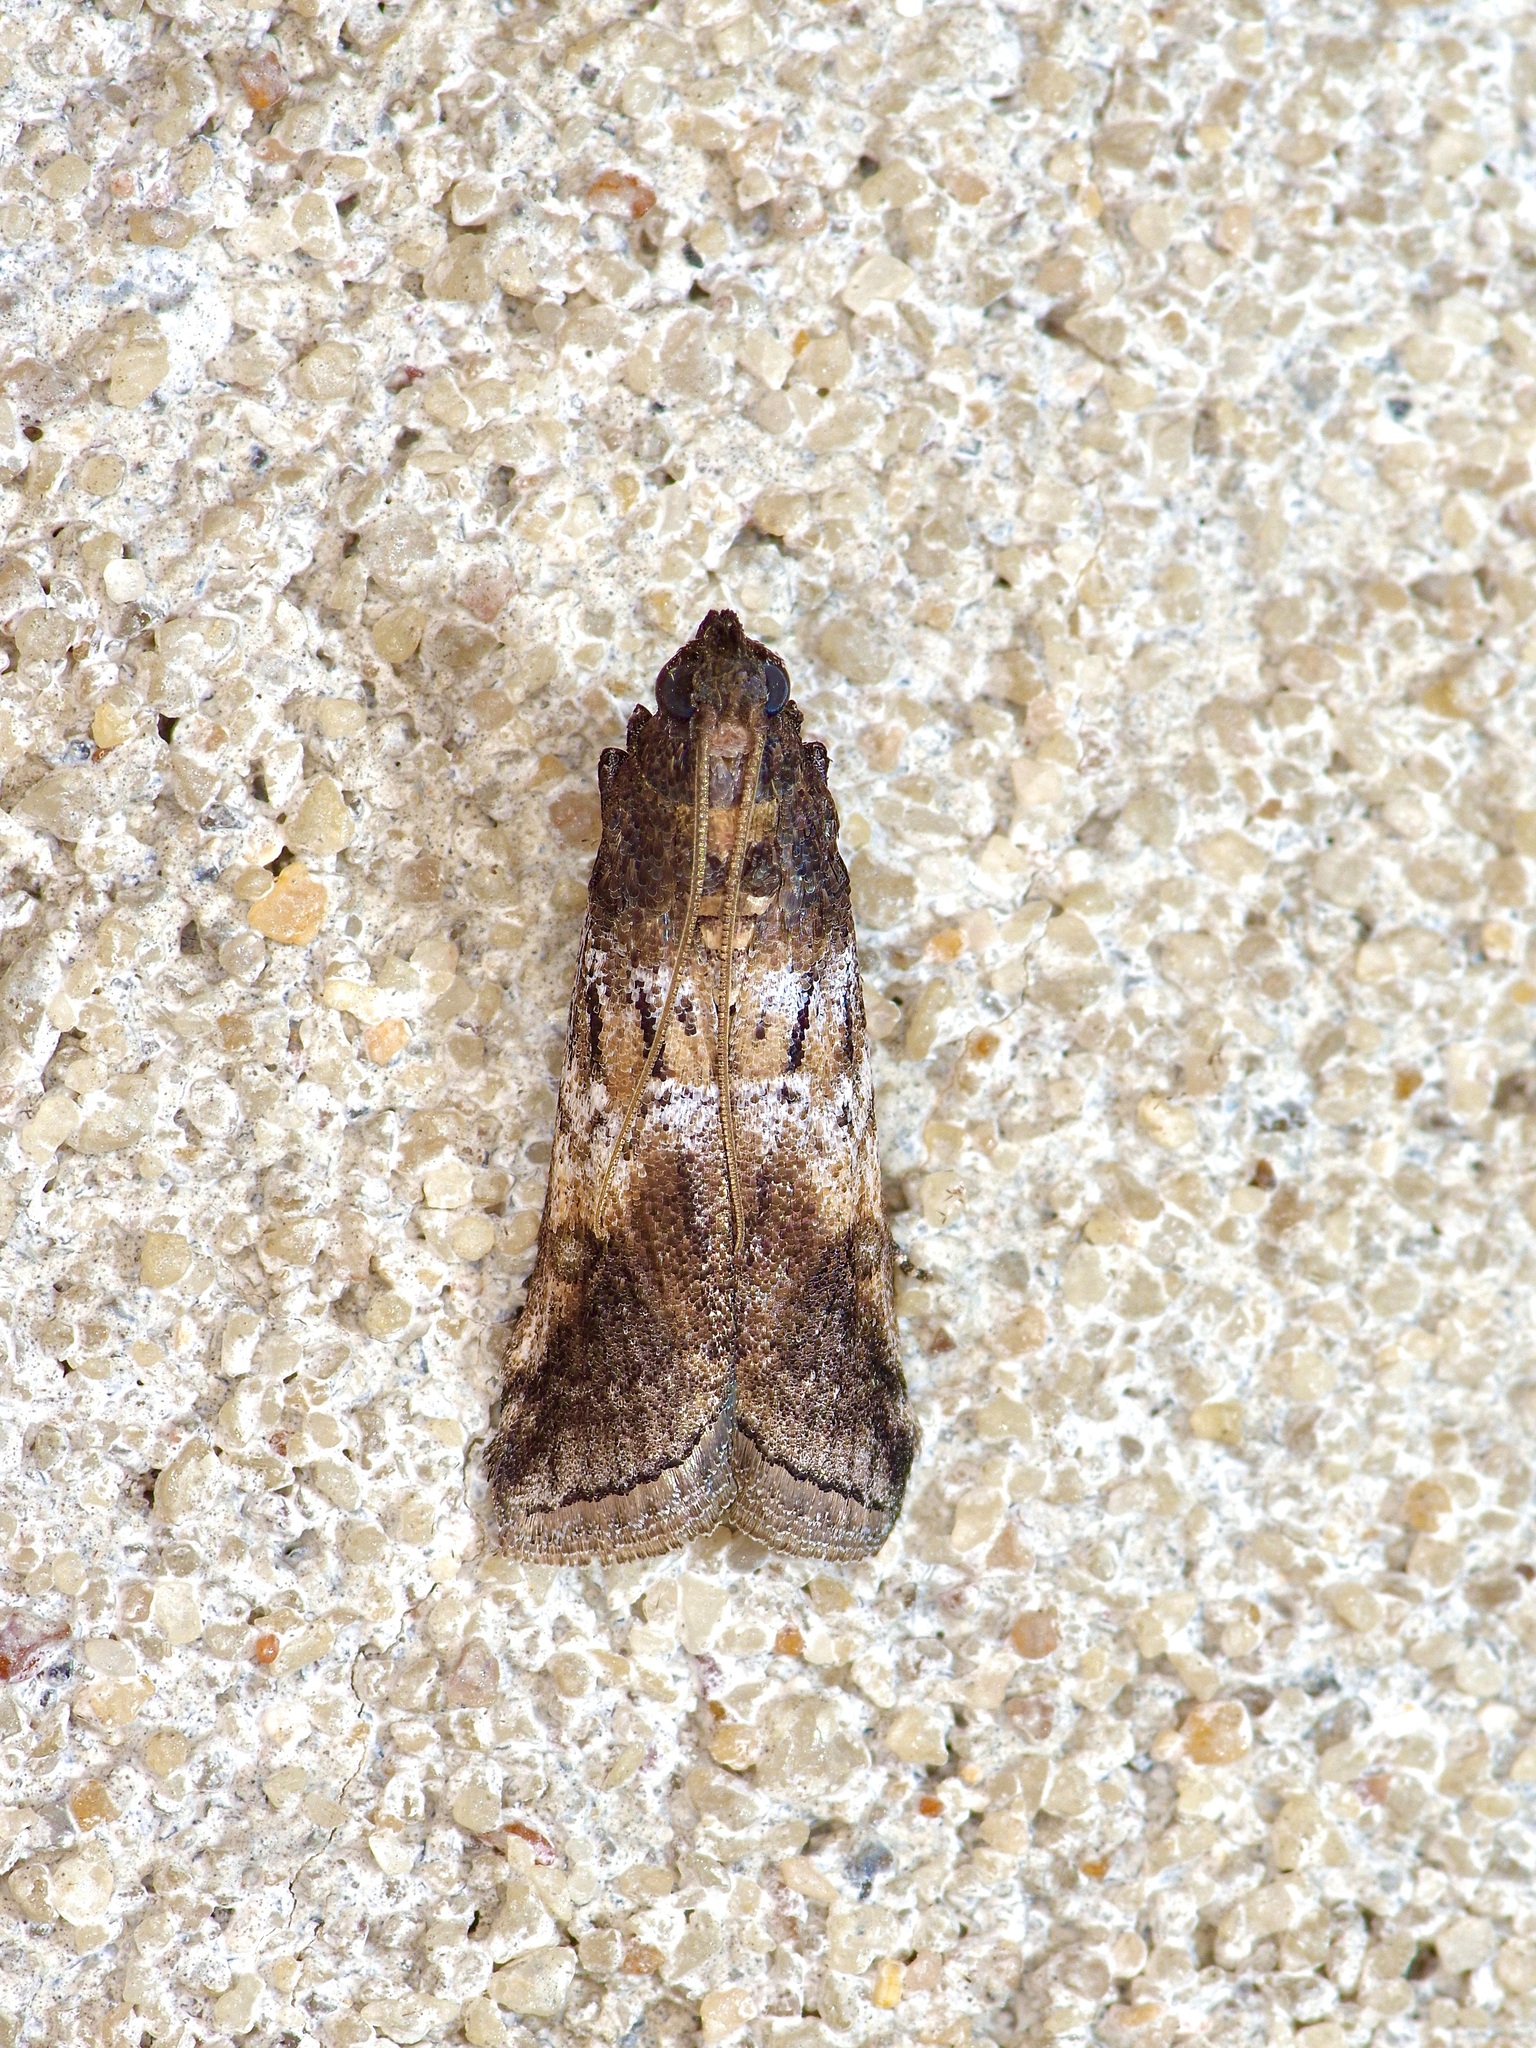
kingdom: Animalia
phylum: Arthropoda
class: Insecta
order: Lepidoptera
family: Pyralidae
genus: Chararica
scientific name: Chararica hystriculella
